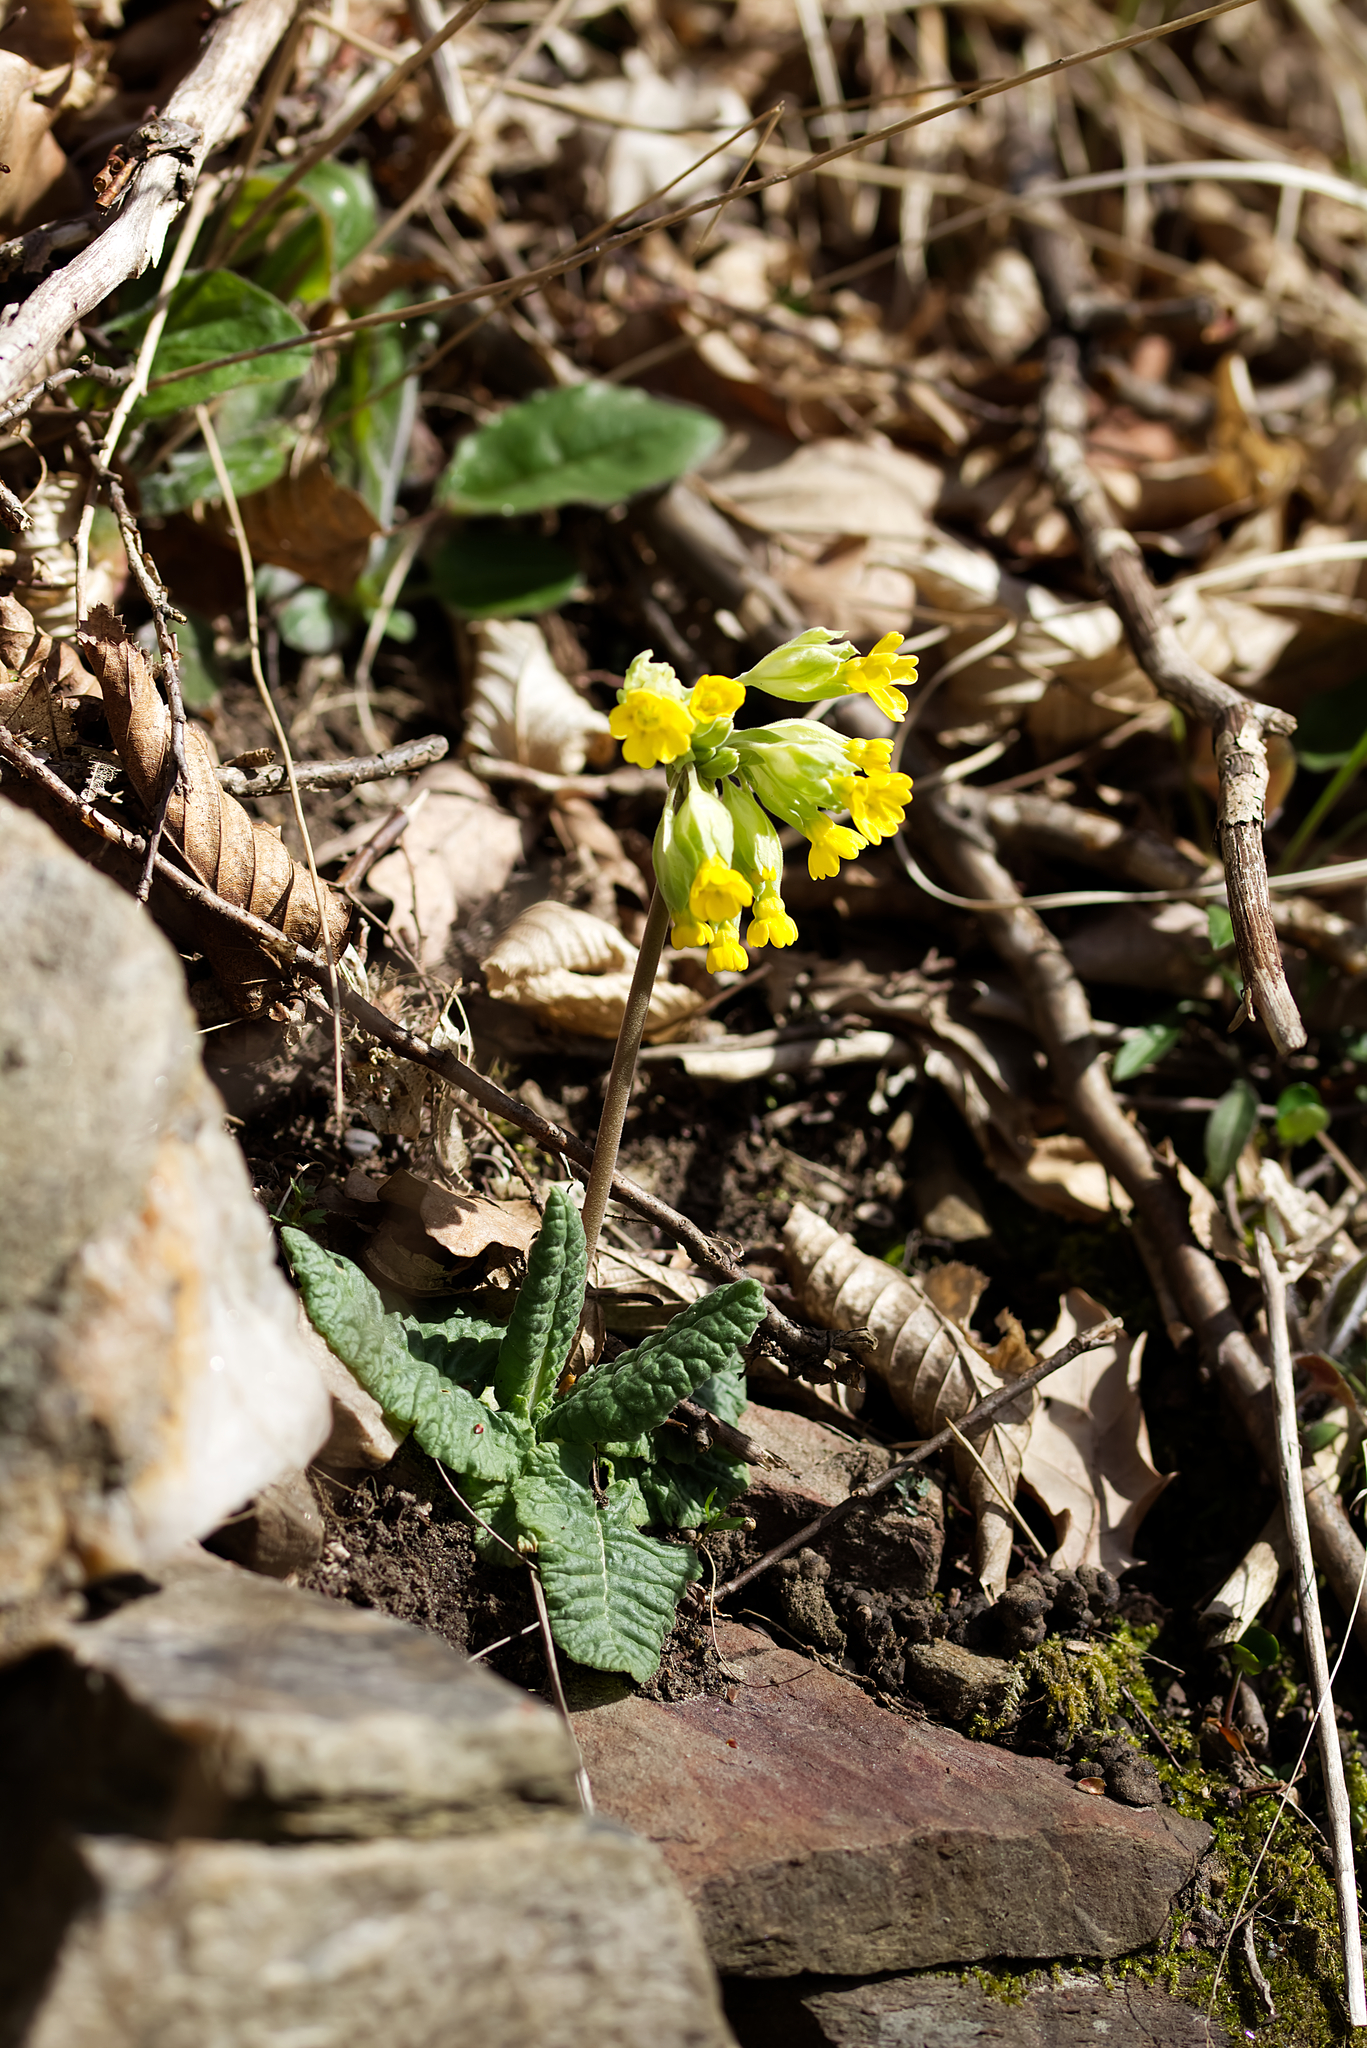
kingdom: Plantae
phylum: Tracheophyta
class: Magnoliopsida
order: Ericales
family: Primulaceae
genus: Primula
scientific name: Primula veris
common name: Cowslip
